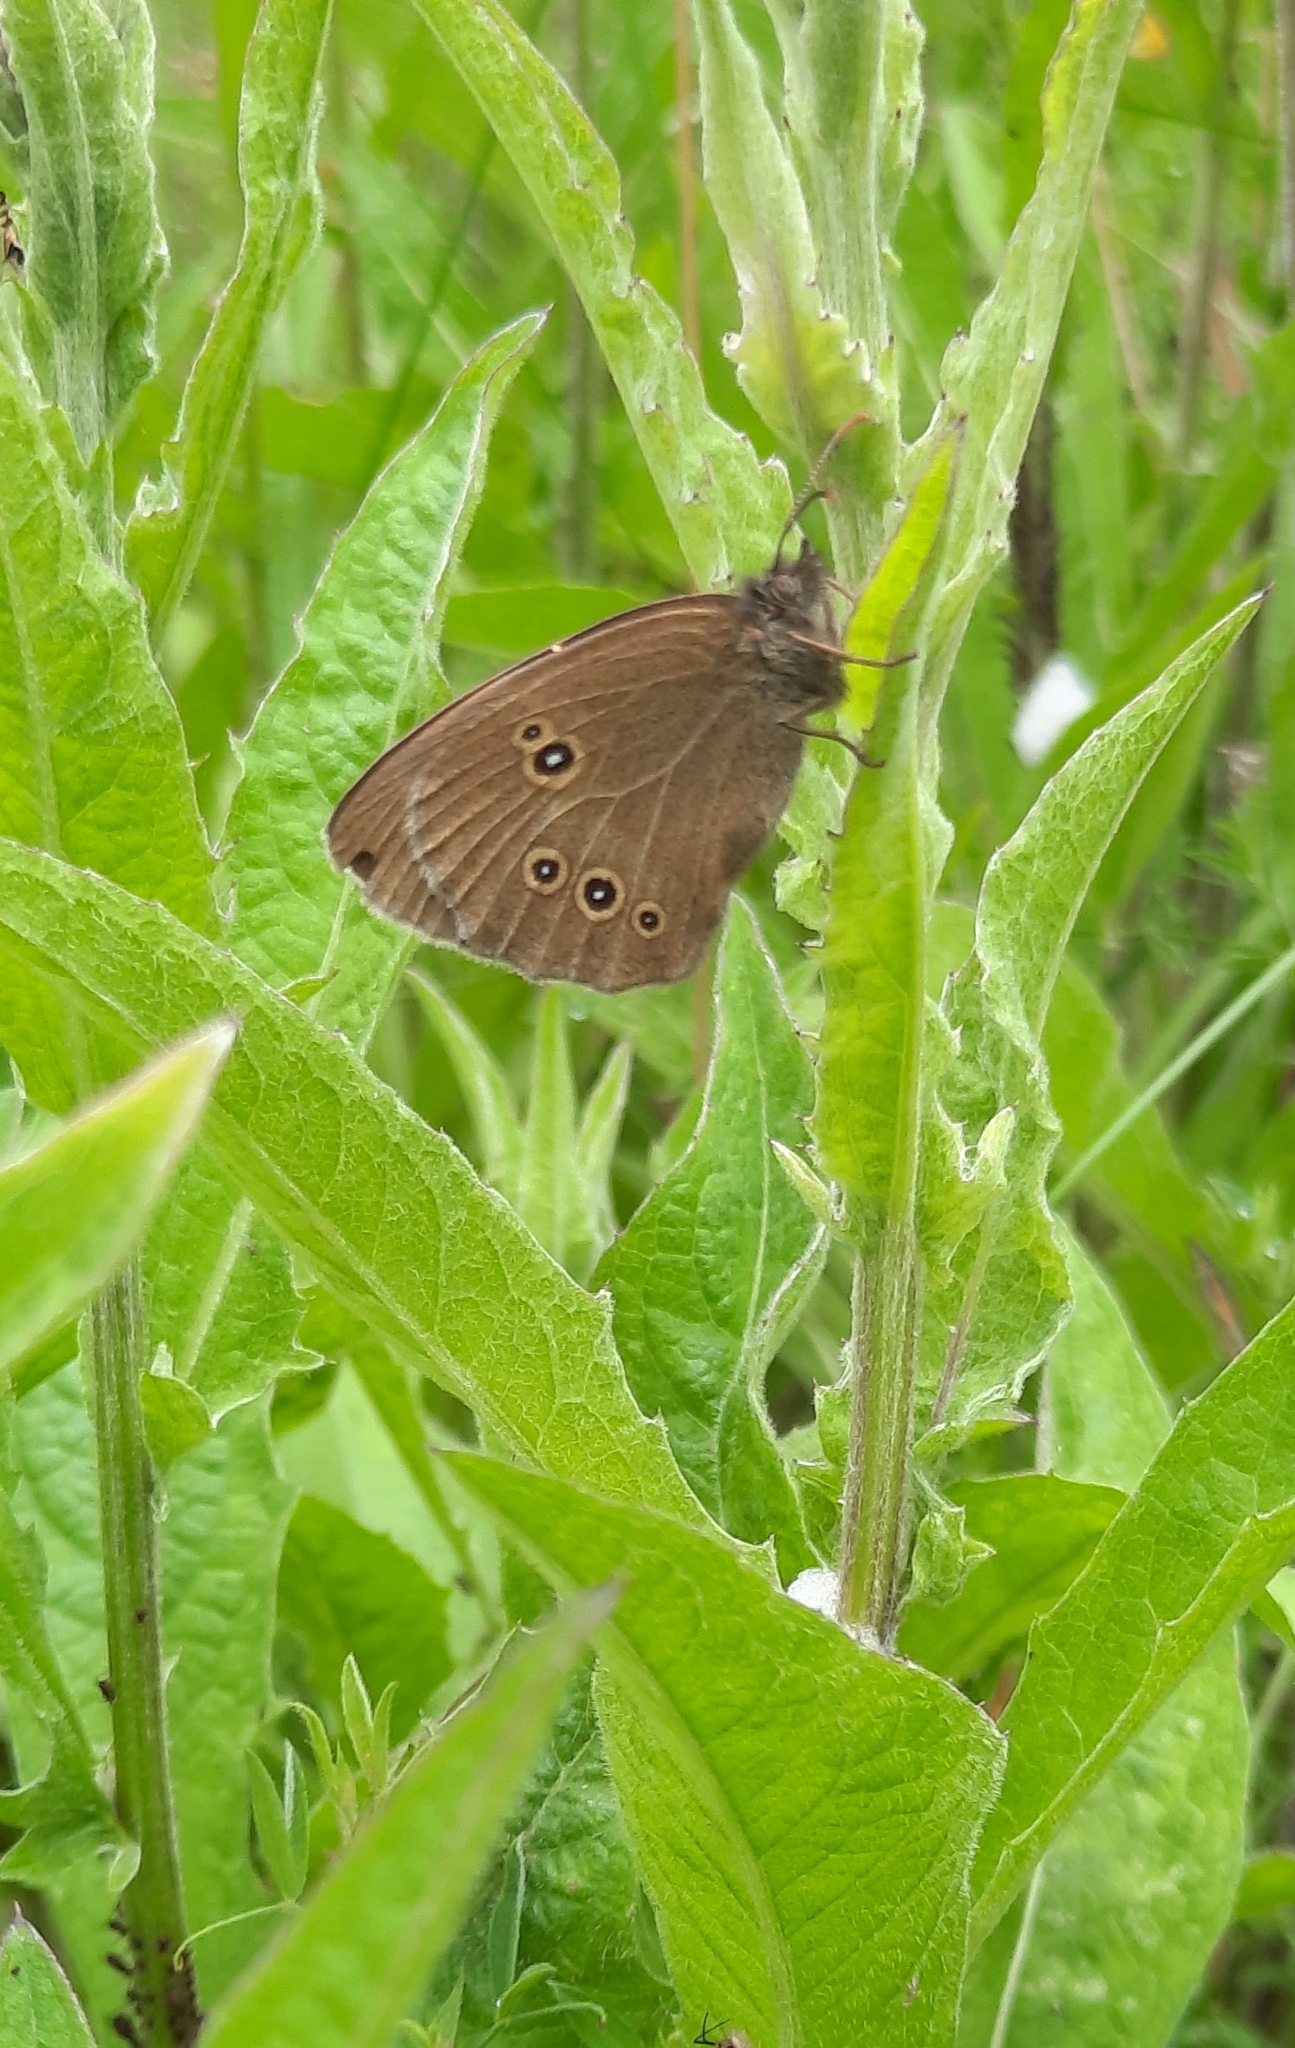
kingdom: Animalia
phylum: Arthropoda
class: Insecta
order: Lepidoptera
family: Nymphalidae
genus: Aphantopus
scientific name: Aphantopus hyperantus
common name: Ringlet
